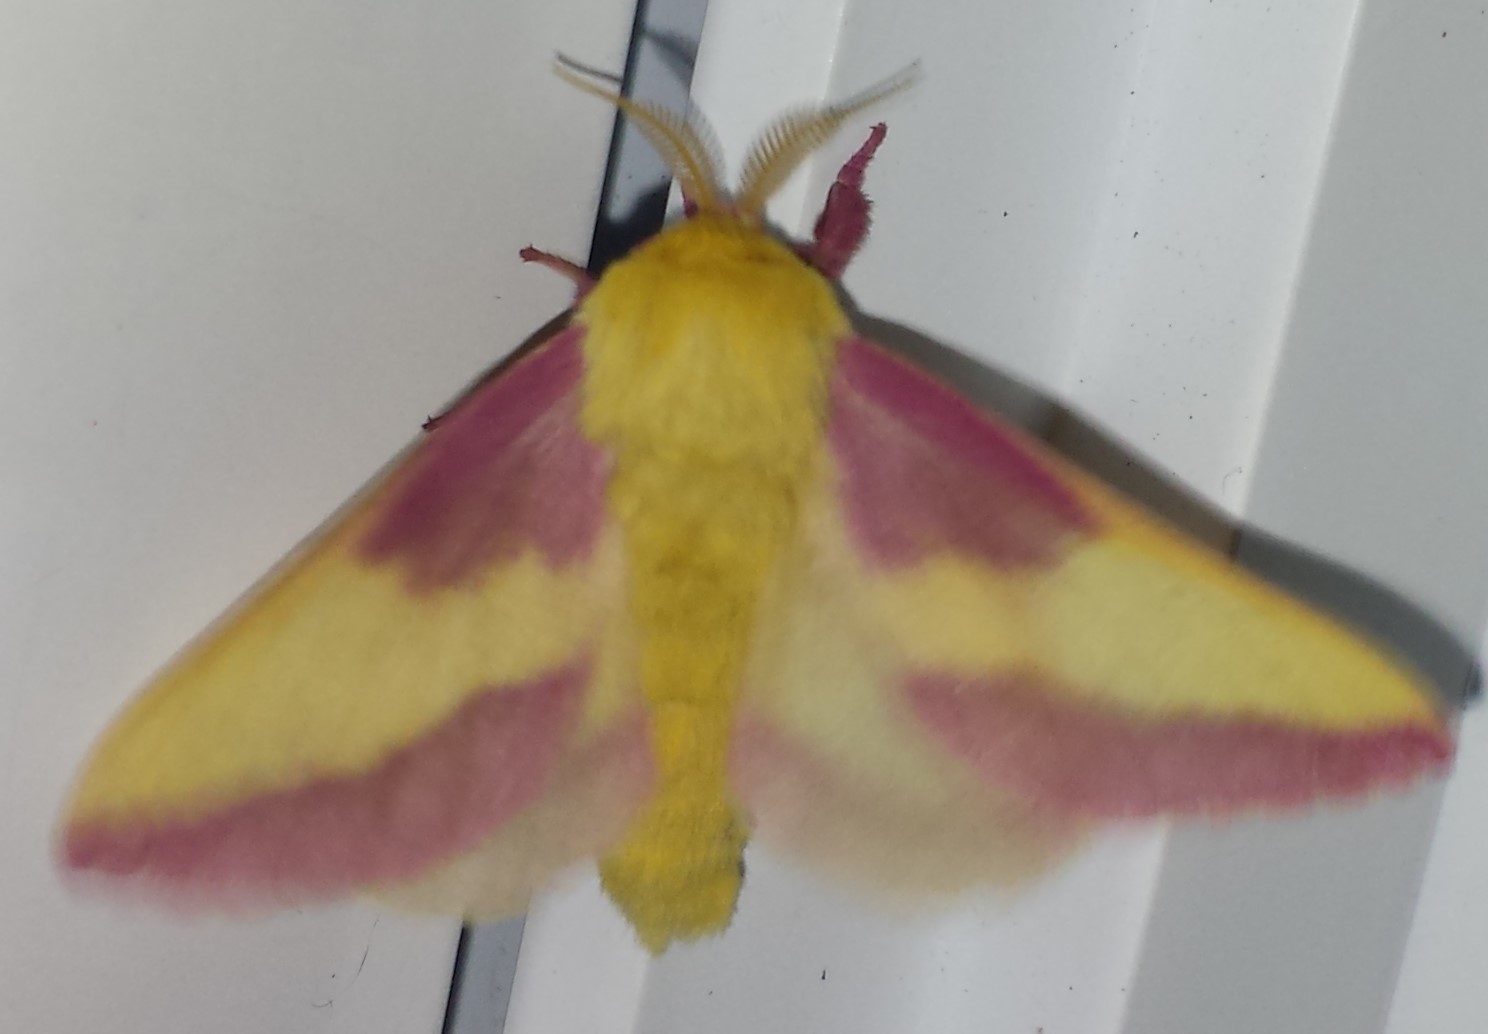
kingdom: Animalia
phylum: Arthropoda
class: Insecta
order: Lepidoptera
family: Saturniidae
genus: Dryocampa
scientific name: Dryocampa rubicunda
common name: Rosy maple moth
